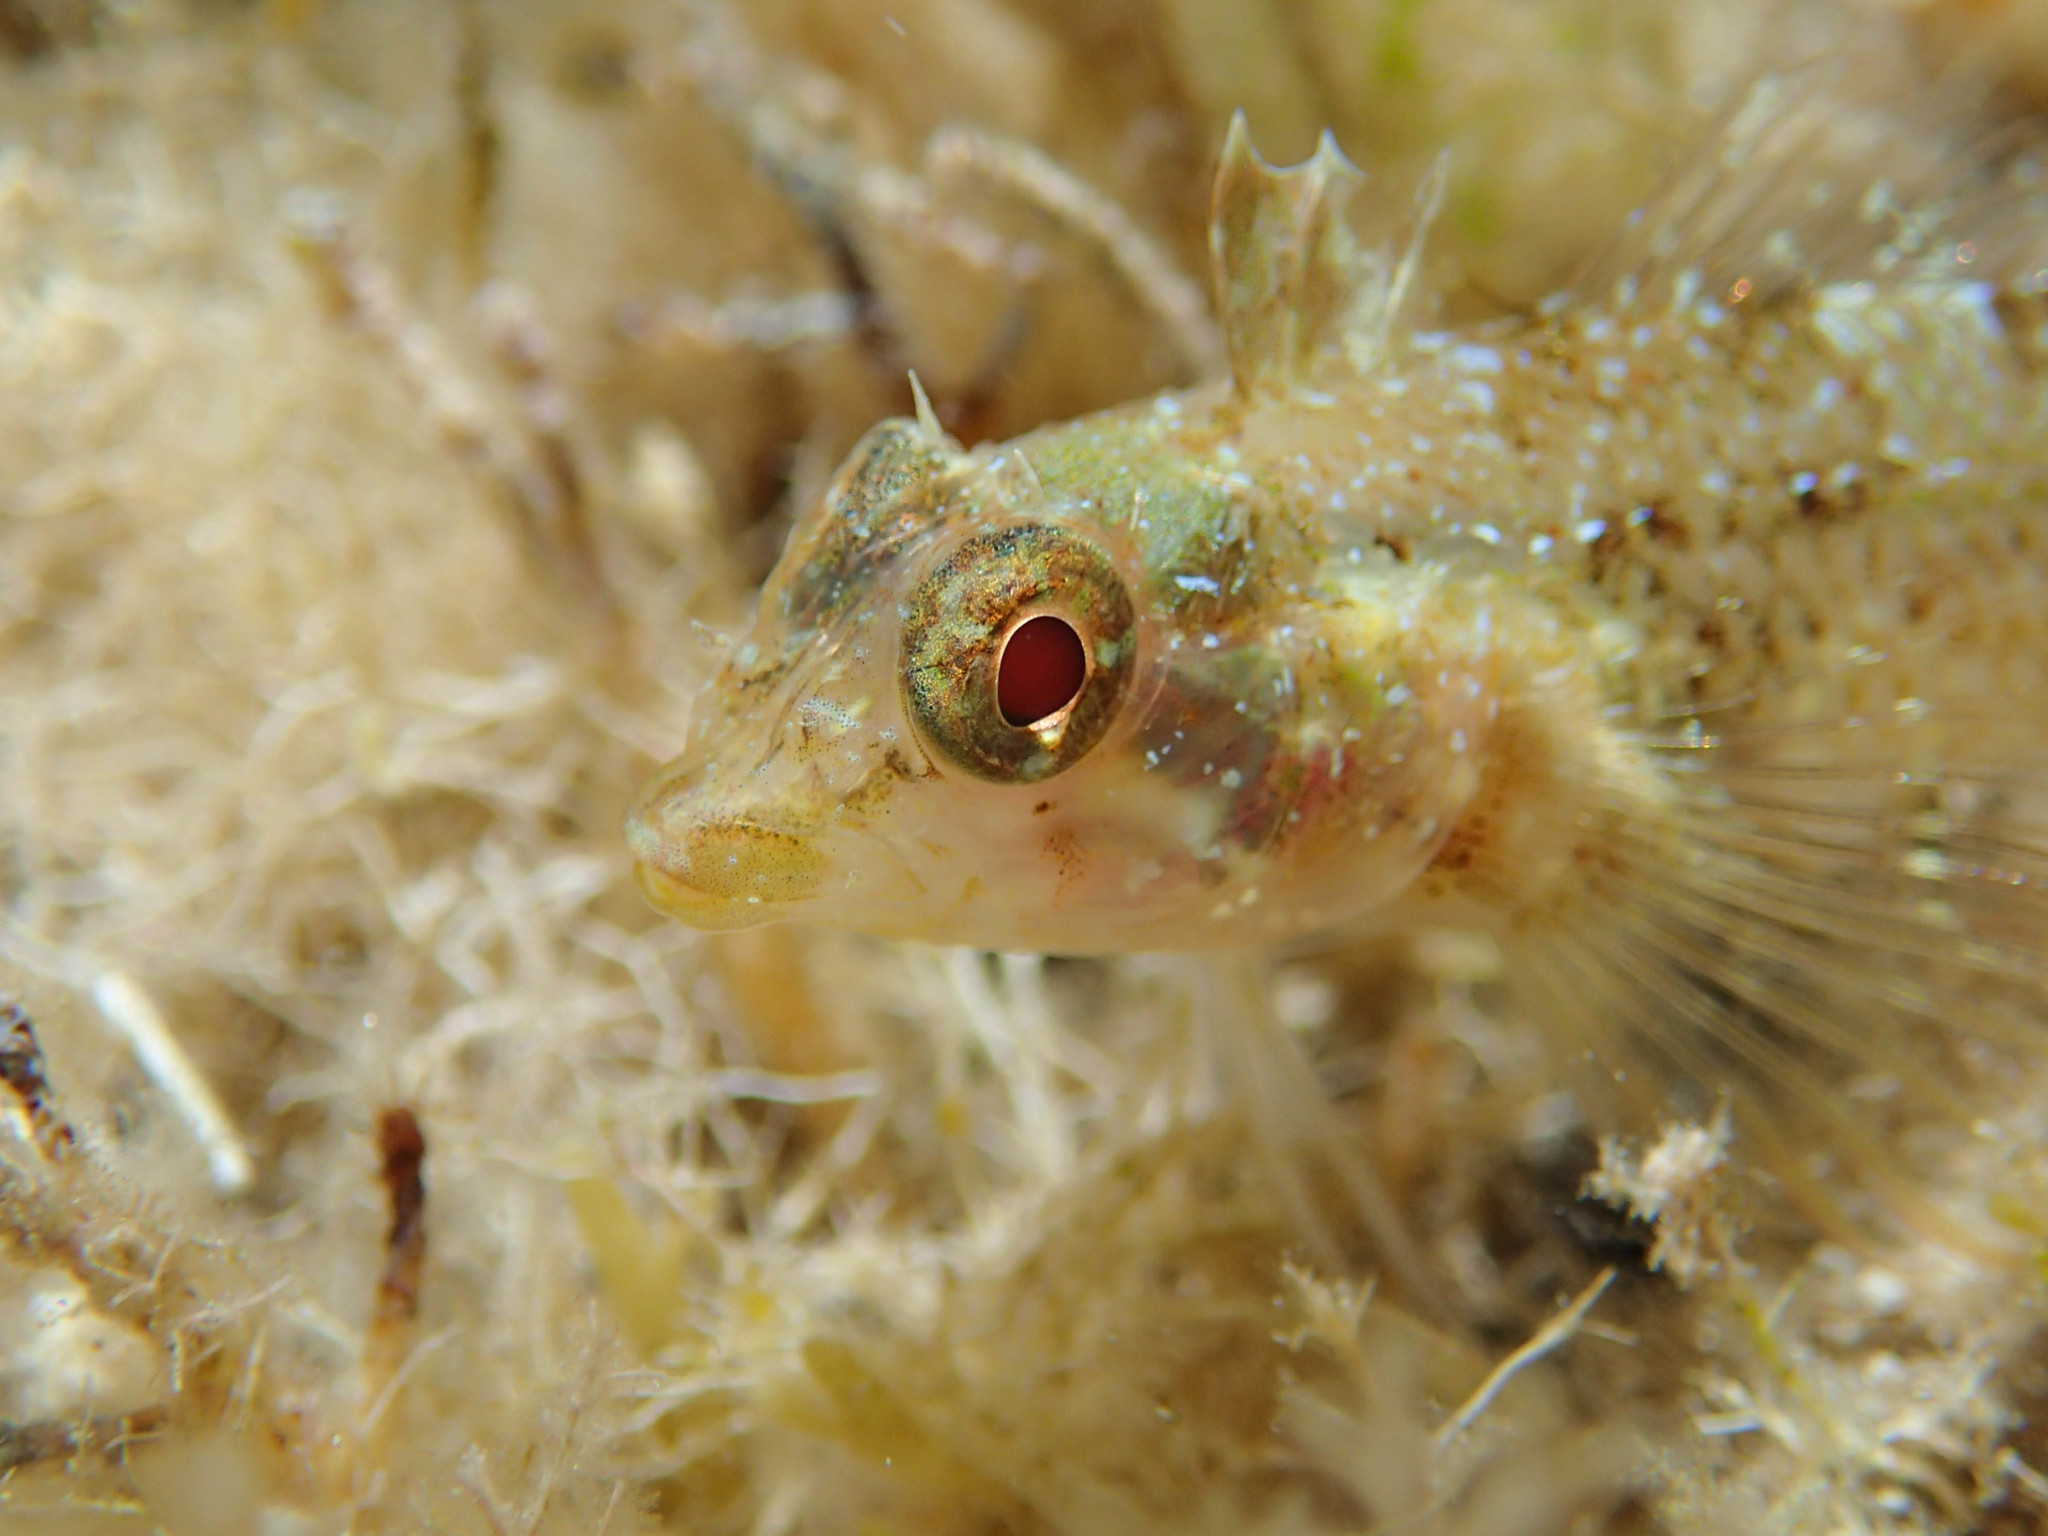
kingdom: Animalia
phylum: Chordata
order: Perciformes
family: Tripterygiidae
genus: Tripterygion
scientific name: Tripterygion tripteronotum
